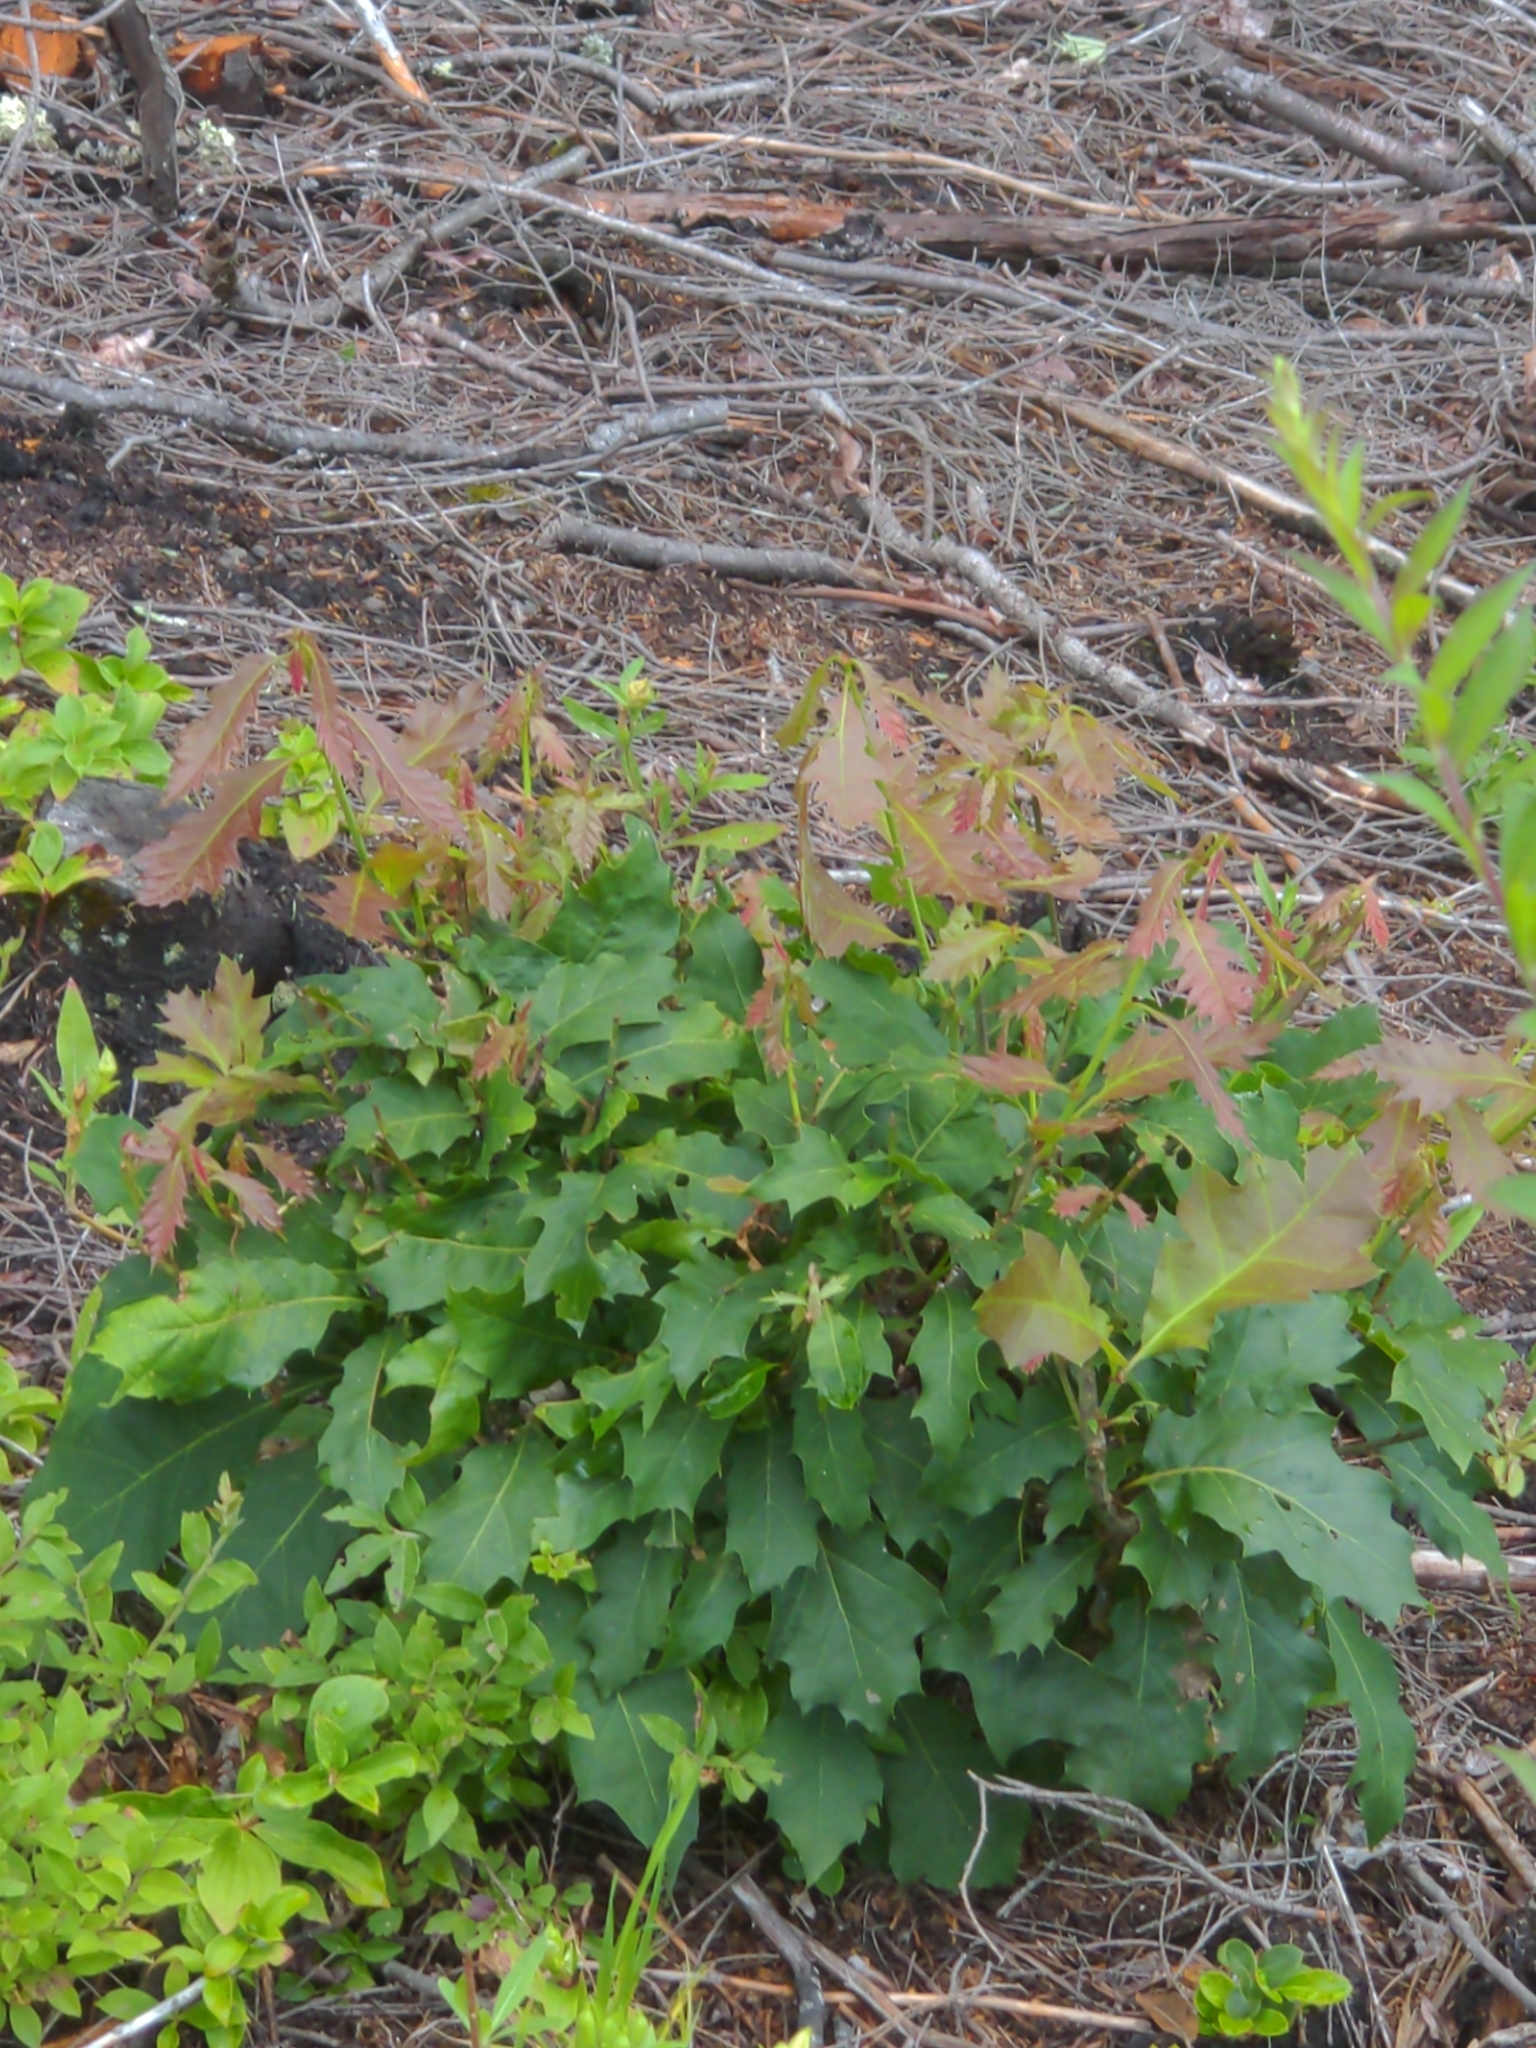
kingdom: Plantae
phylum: Tracheophyta
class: Magnoliopsida
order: Fagales
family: Fagaceae
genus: Quercus
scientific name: Quercus rubra
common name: Red oak
